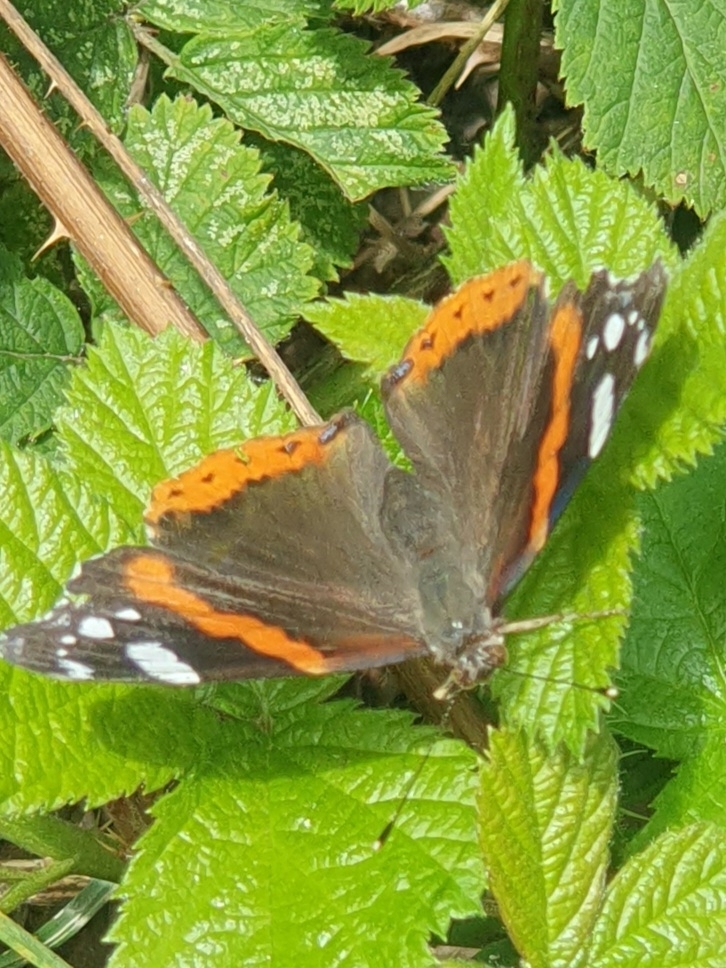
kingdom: Animalia
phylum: Arthropoda
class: Insecta
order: Lepidoptera
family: Nymphalidae
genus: Vanessa
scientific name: Vanessa atalanta
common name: Red admiral
